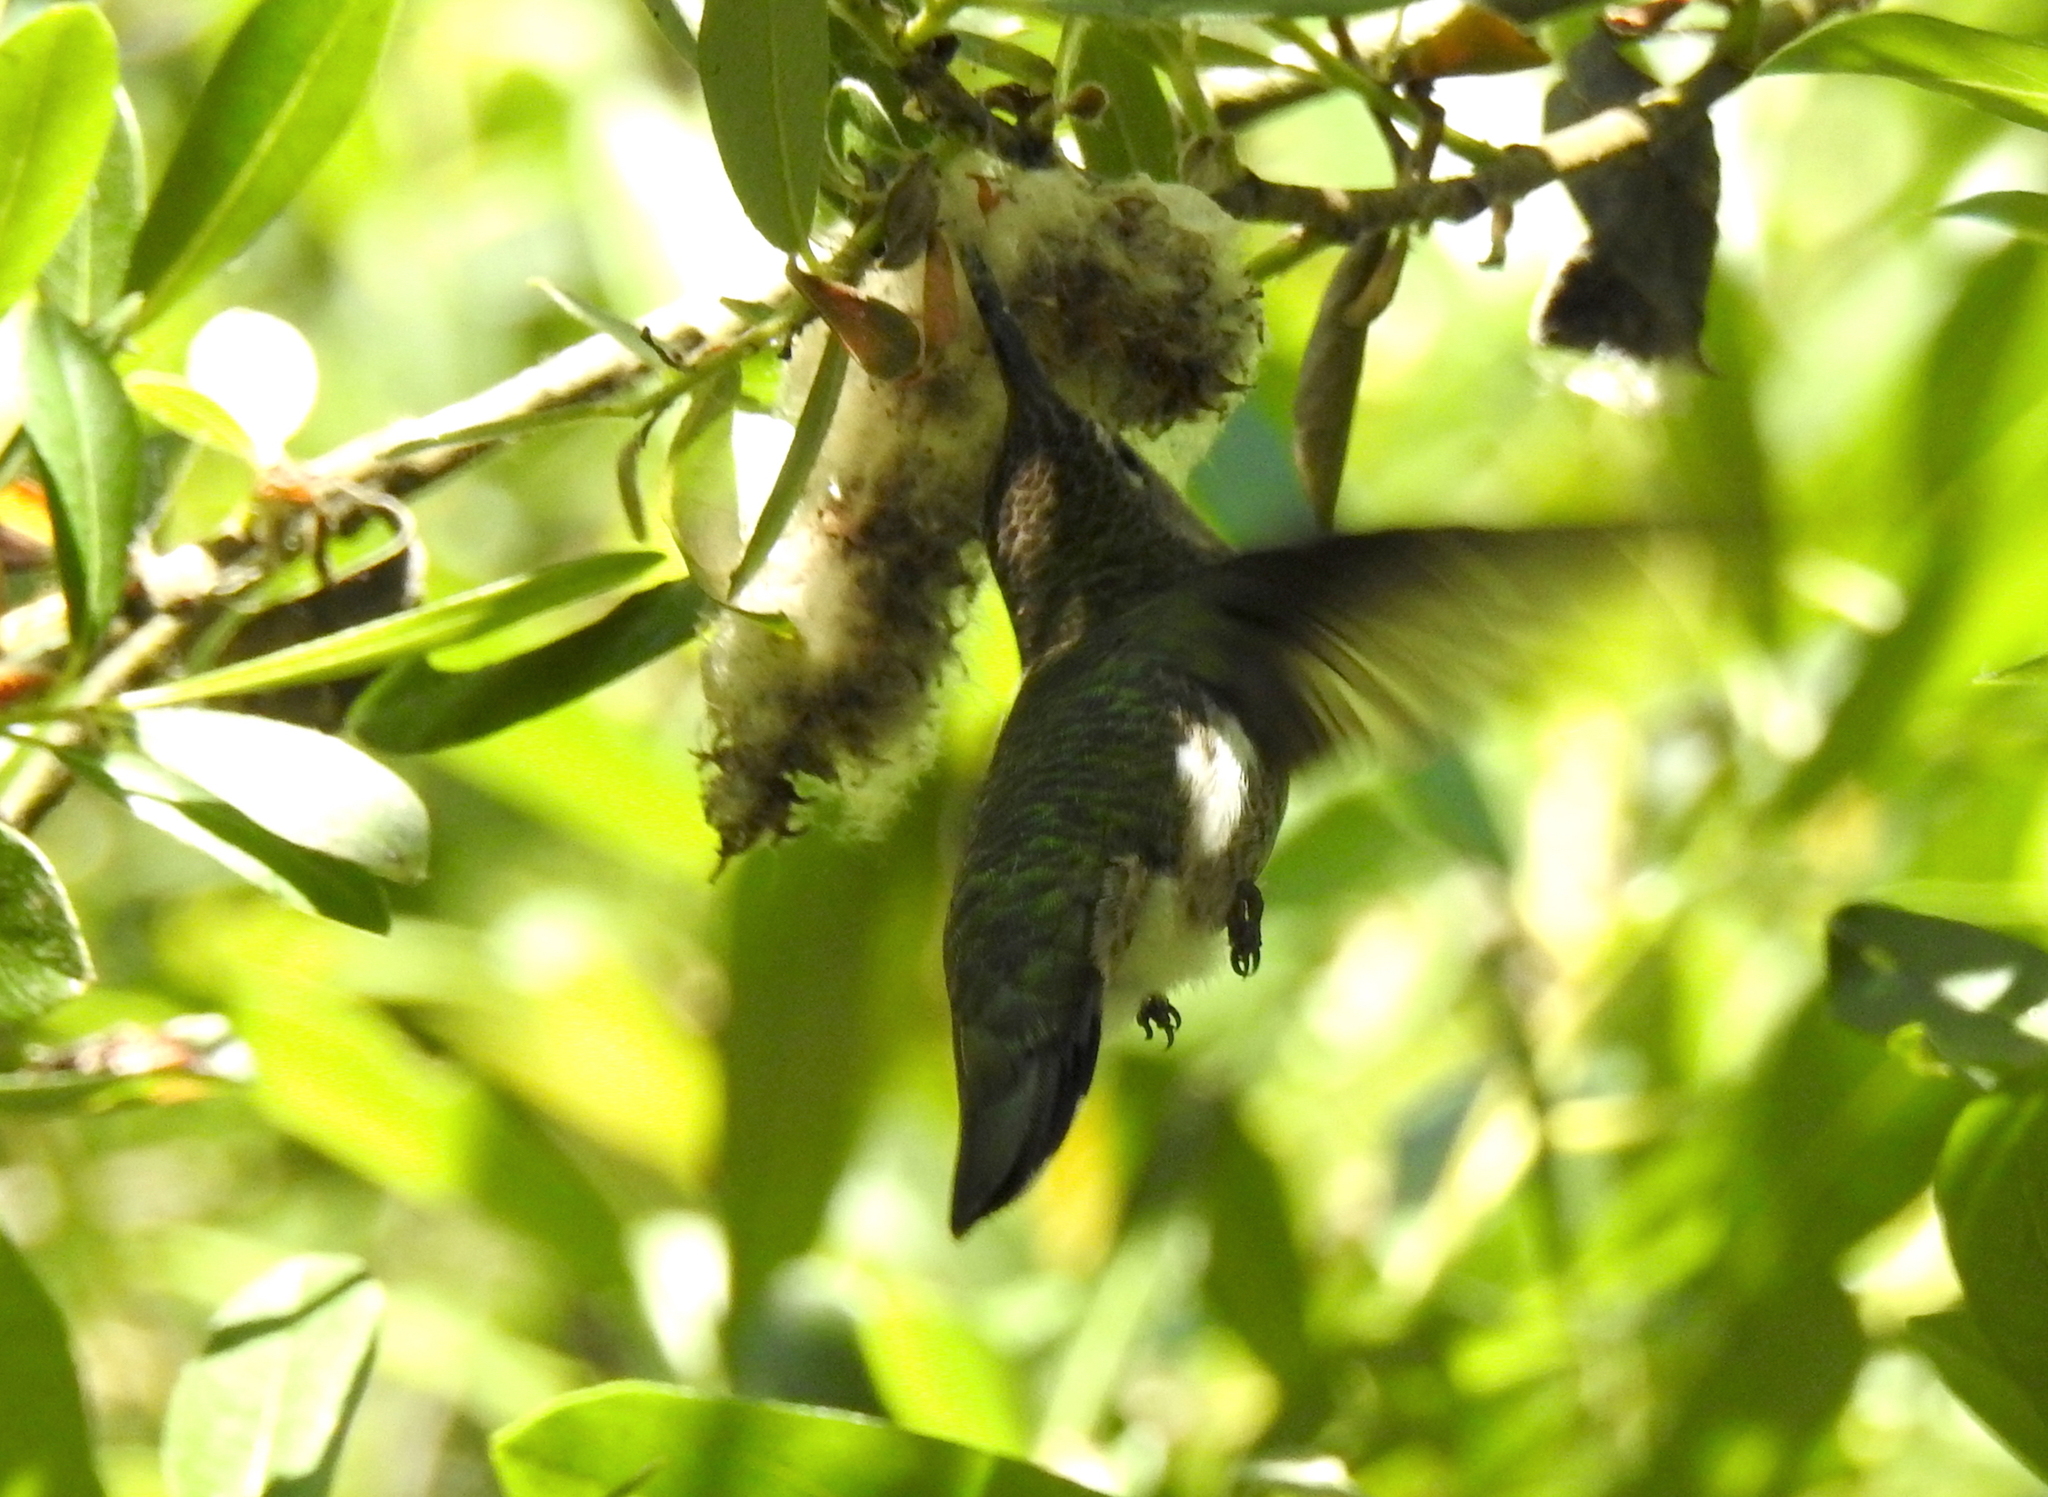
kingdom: Animalia
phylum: Chordata
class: Aves
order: Apodiformes
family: Trochilidae
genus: Calypte
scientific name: Calypte anna
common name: Anna's hummingbird
